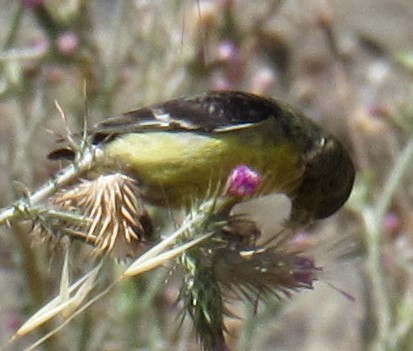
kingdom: Animalia
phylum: Chordata
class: Aves
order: Passeriformes
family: Fringillidae
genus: Spinus
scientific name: Spinus psaltria
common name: Lesser goldfinch
